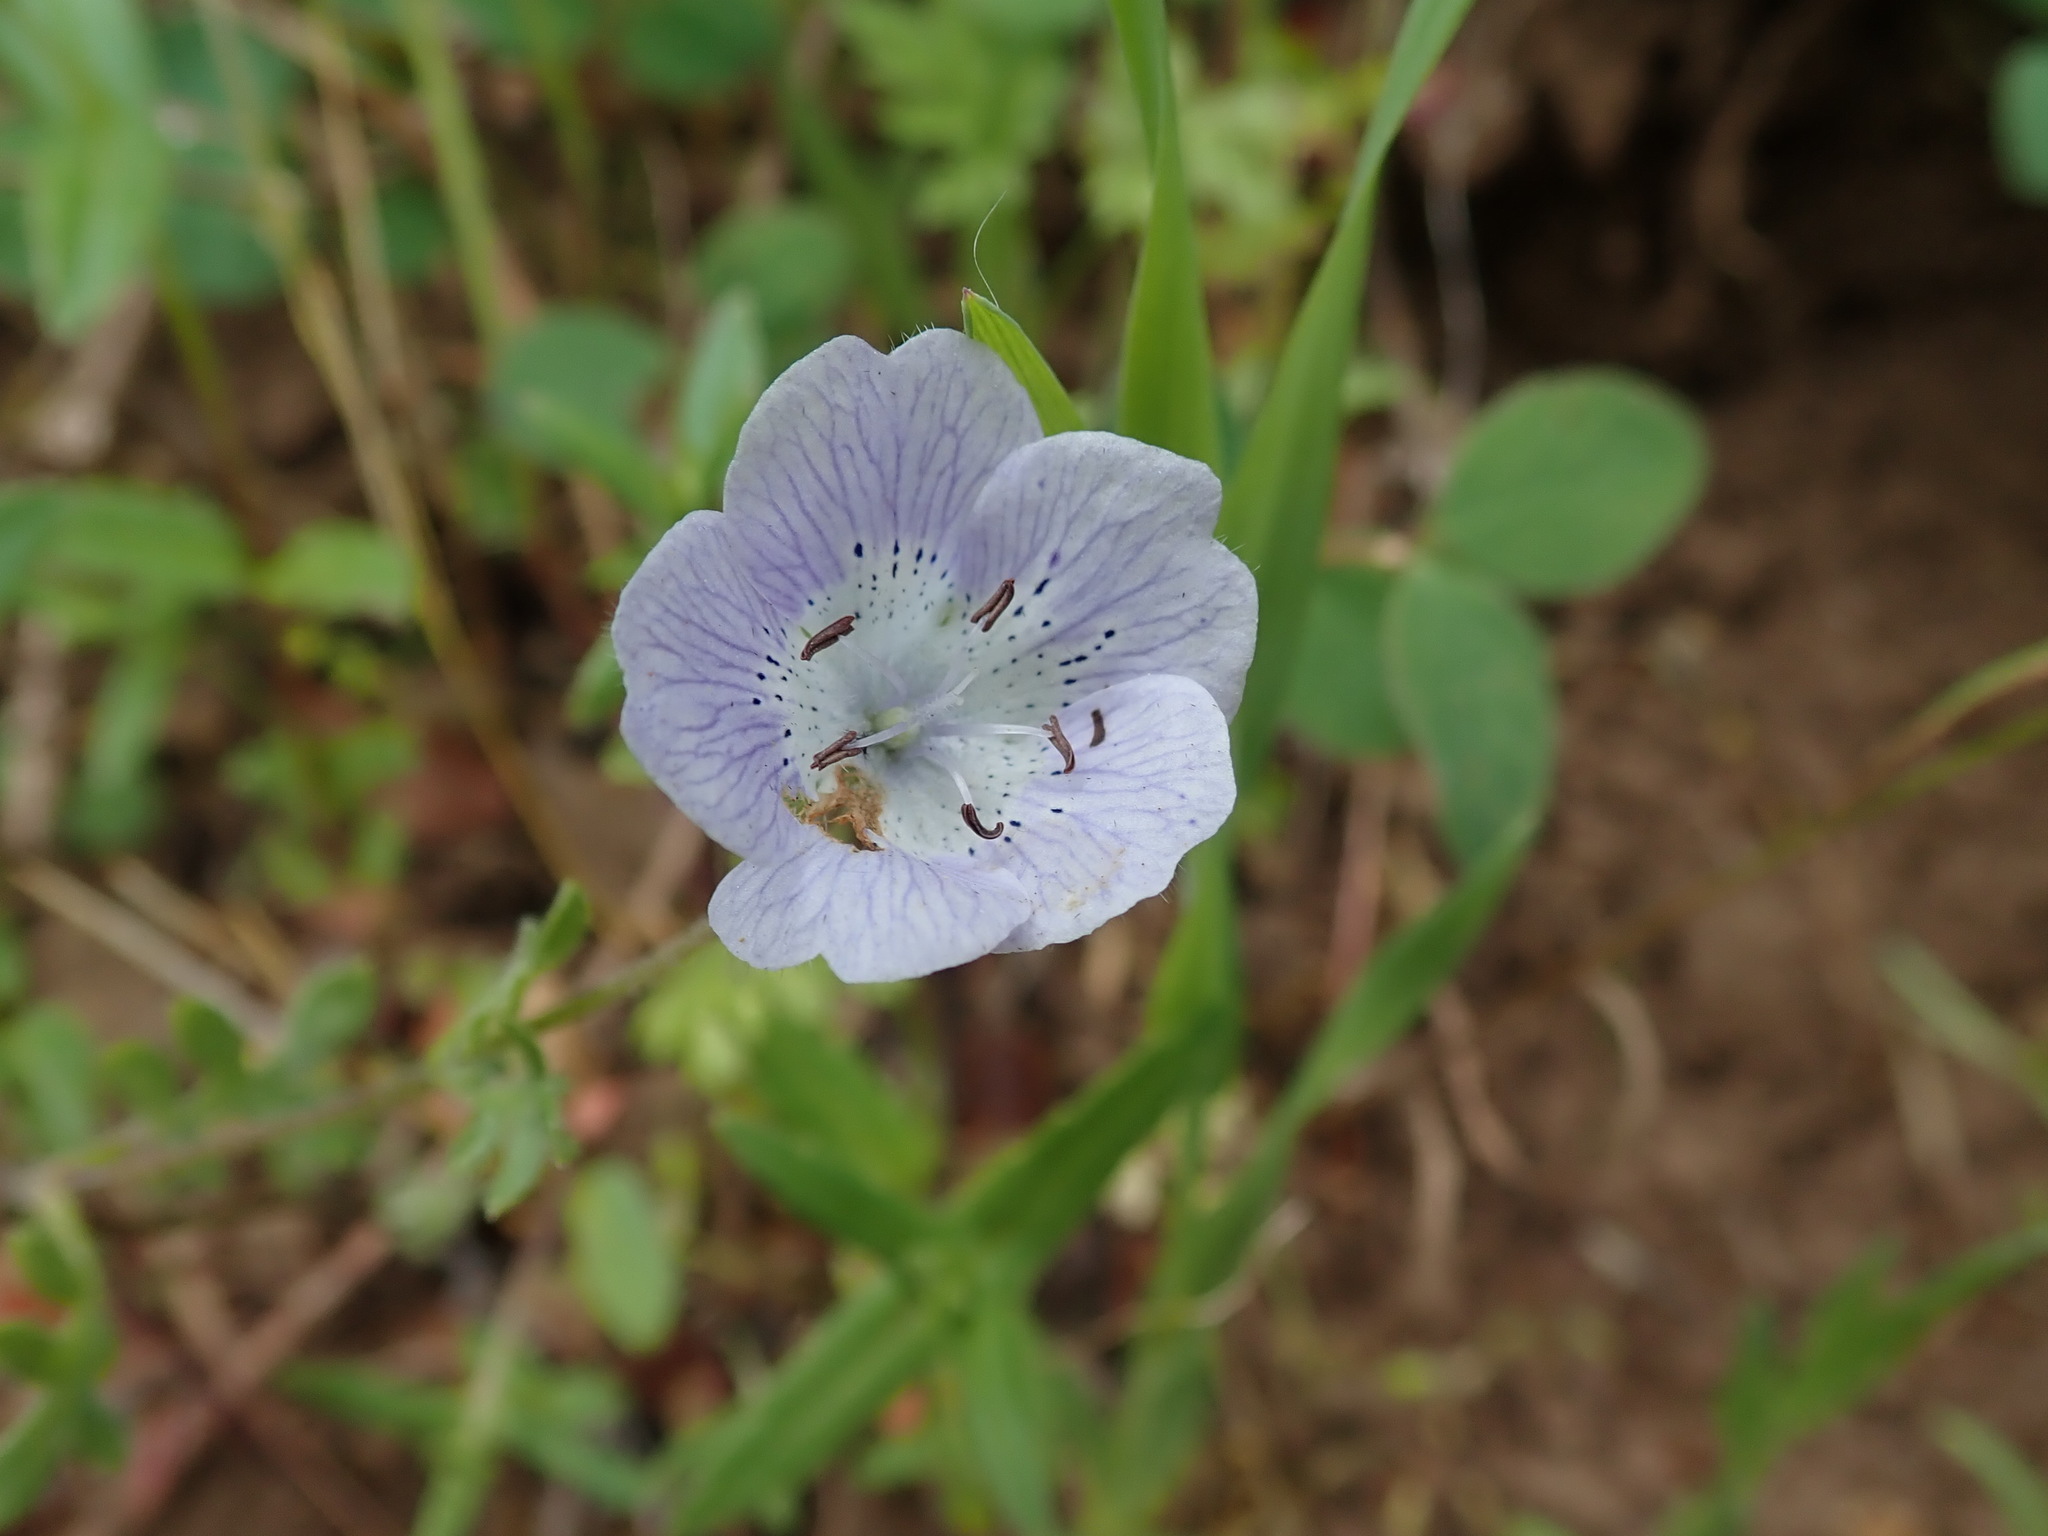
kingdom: Plantae
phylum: Tracheophyta
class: Magnoliopsida
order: Boraginales
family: Hydrophyllaceae
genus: Nemophila
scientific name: Nemophila menziesii
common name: Baby's-blue-eyes
